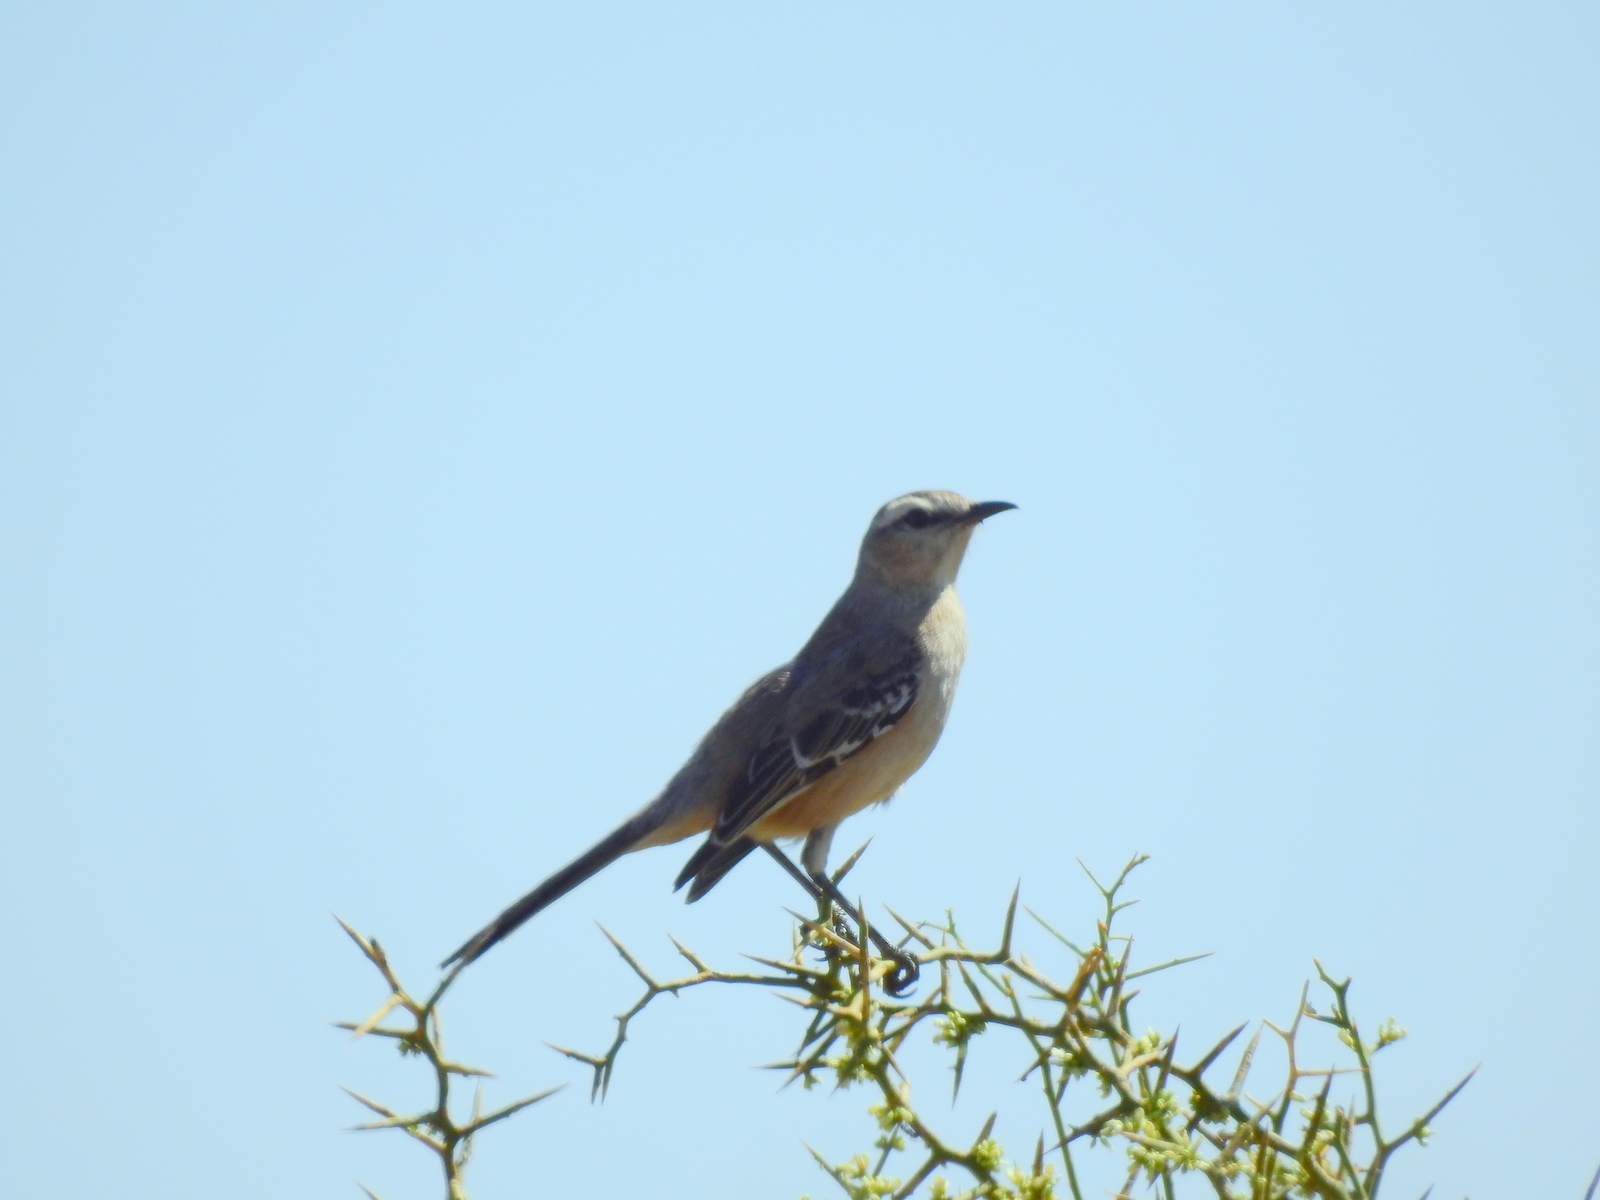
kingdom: Animalia
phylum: Chordata
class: Aves
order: Passeriformes
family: Mimidae
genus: Mimus
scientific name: Mimus patagonicus
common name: Patagonian mockingbird
